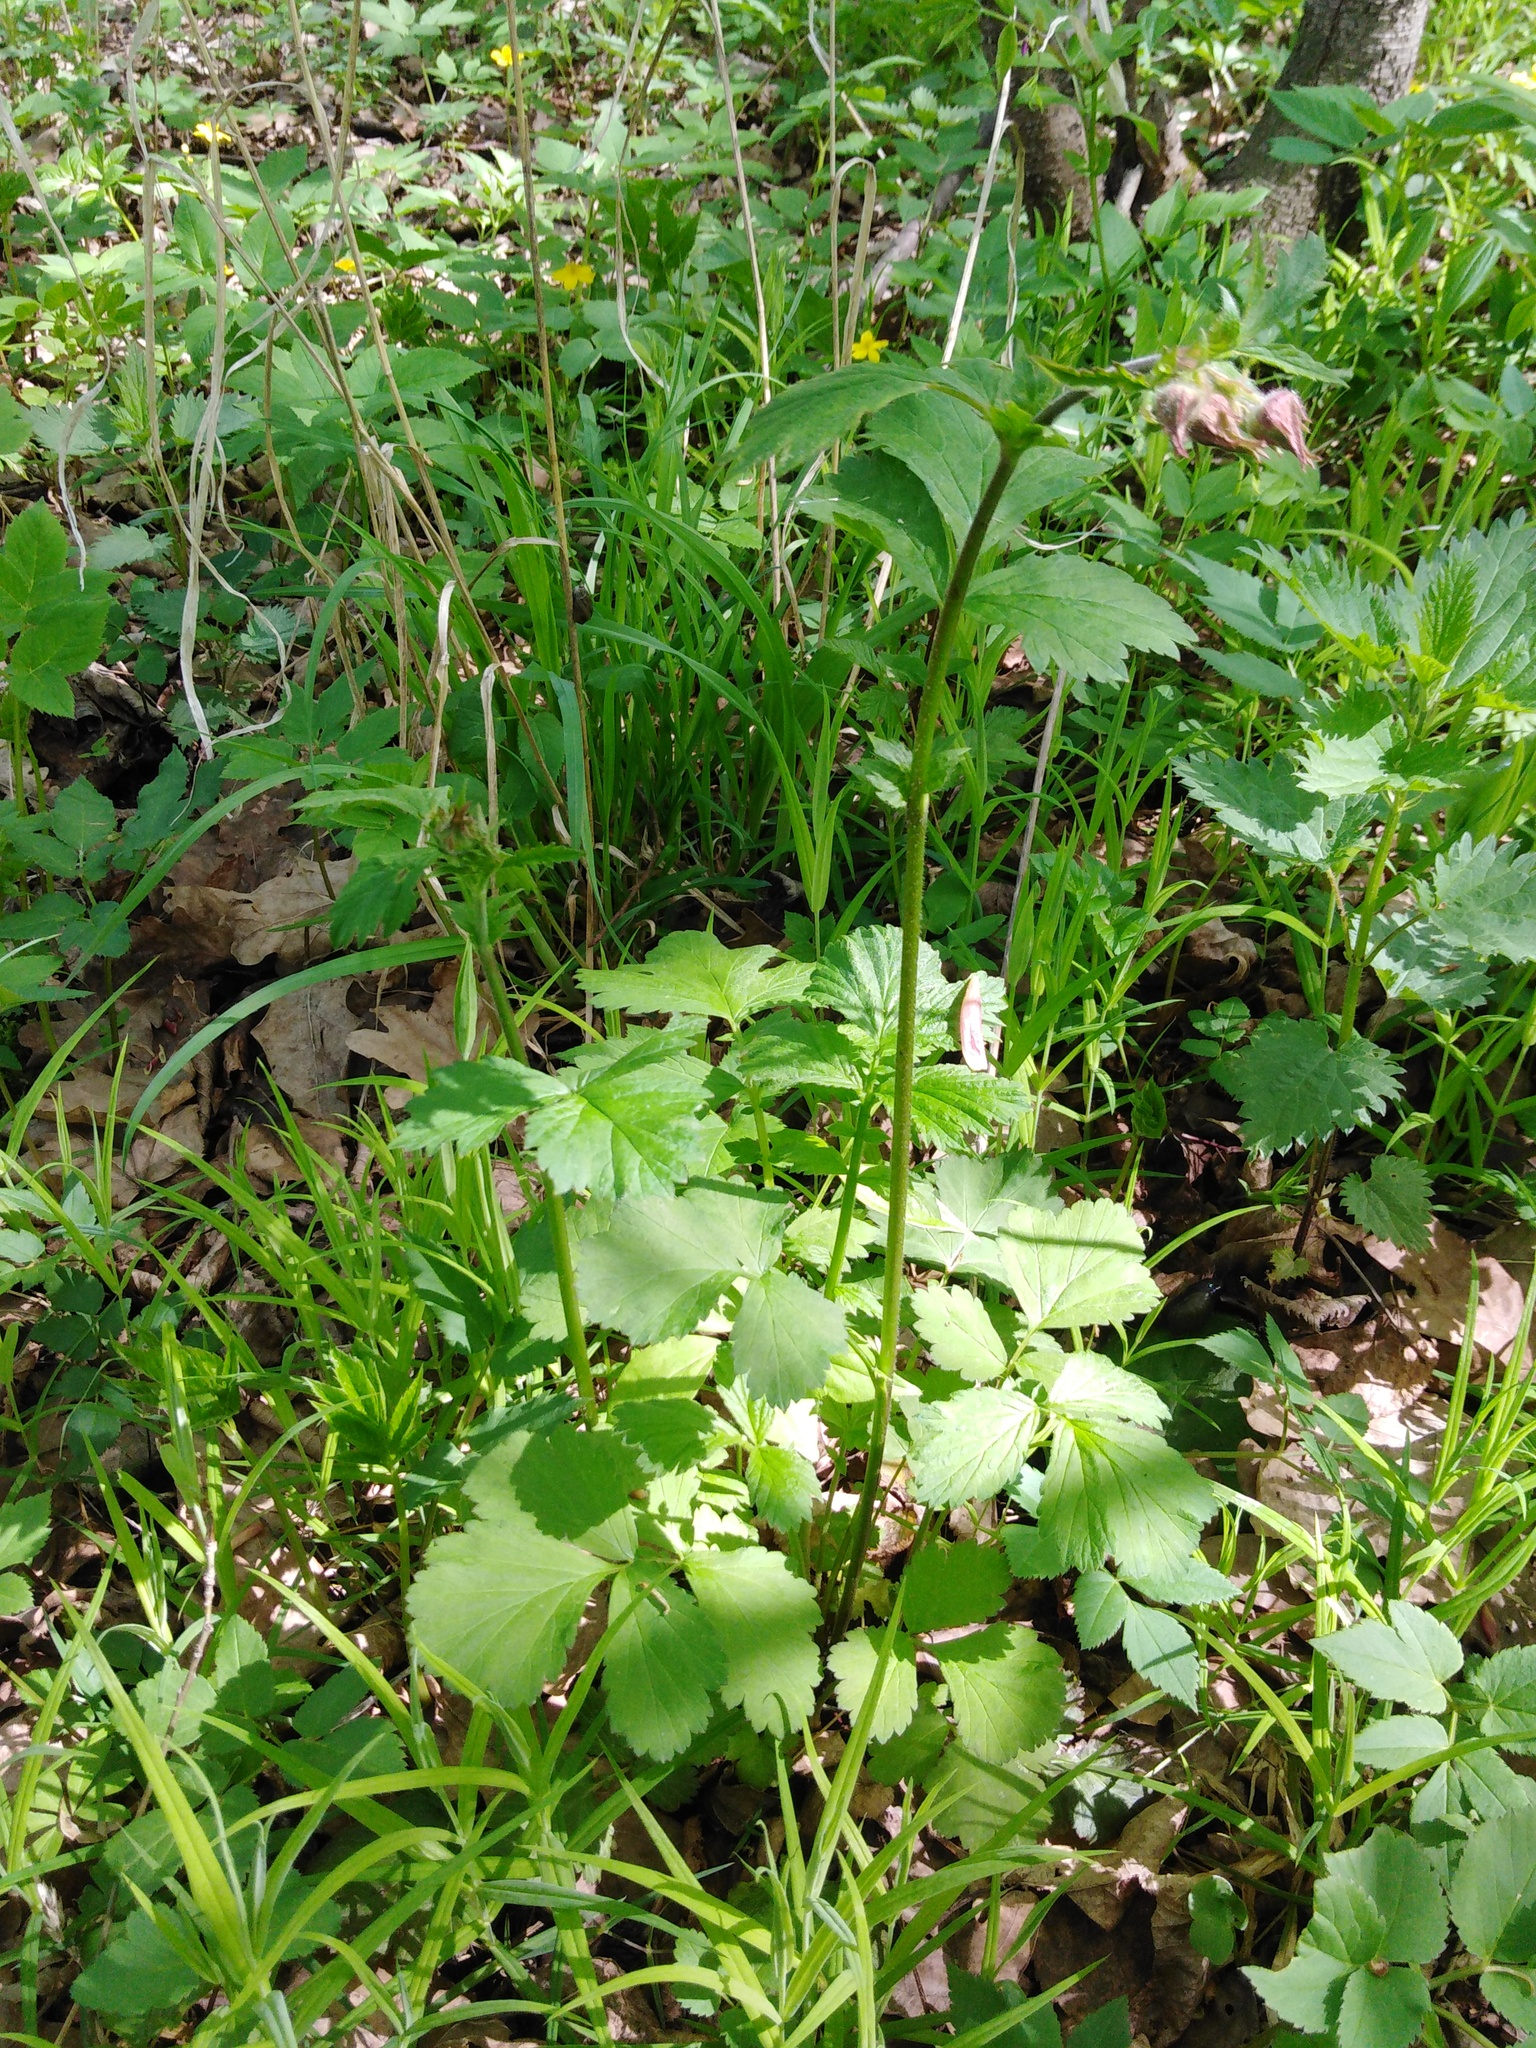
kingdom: Plantae
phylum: Tracheophyta
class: Magnoliopsida
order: Rosales
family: Rosaceae
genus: Geum
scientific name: Geum rivale
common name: Water avens
